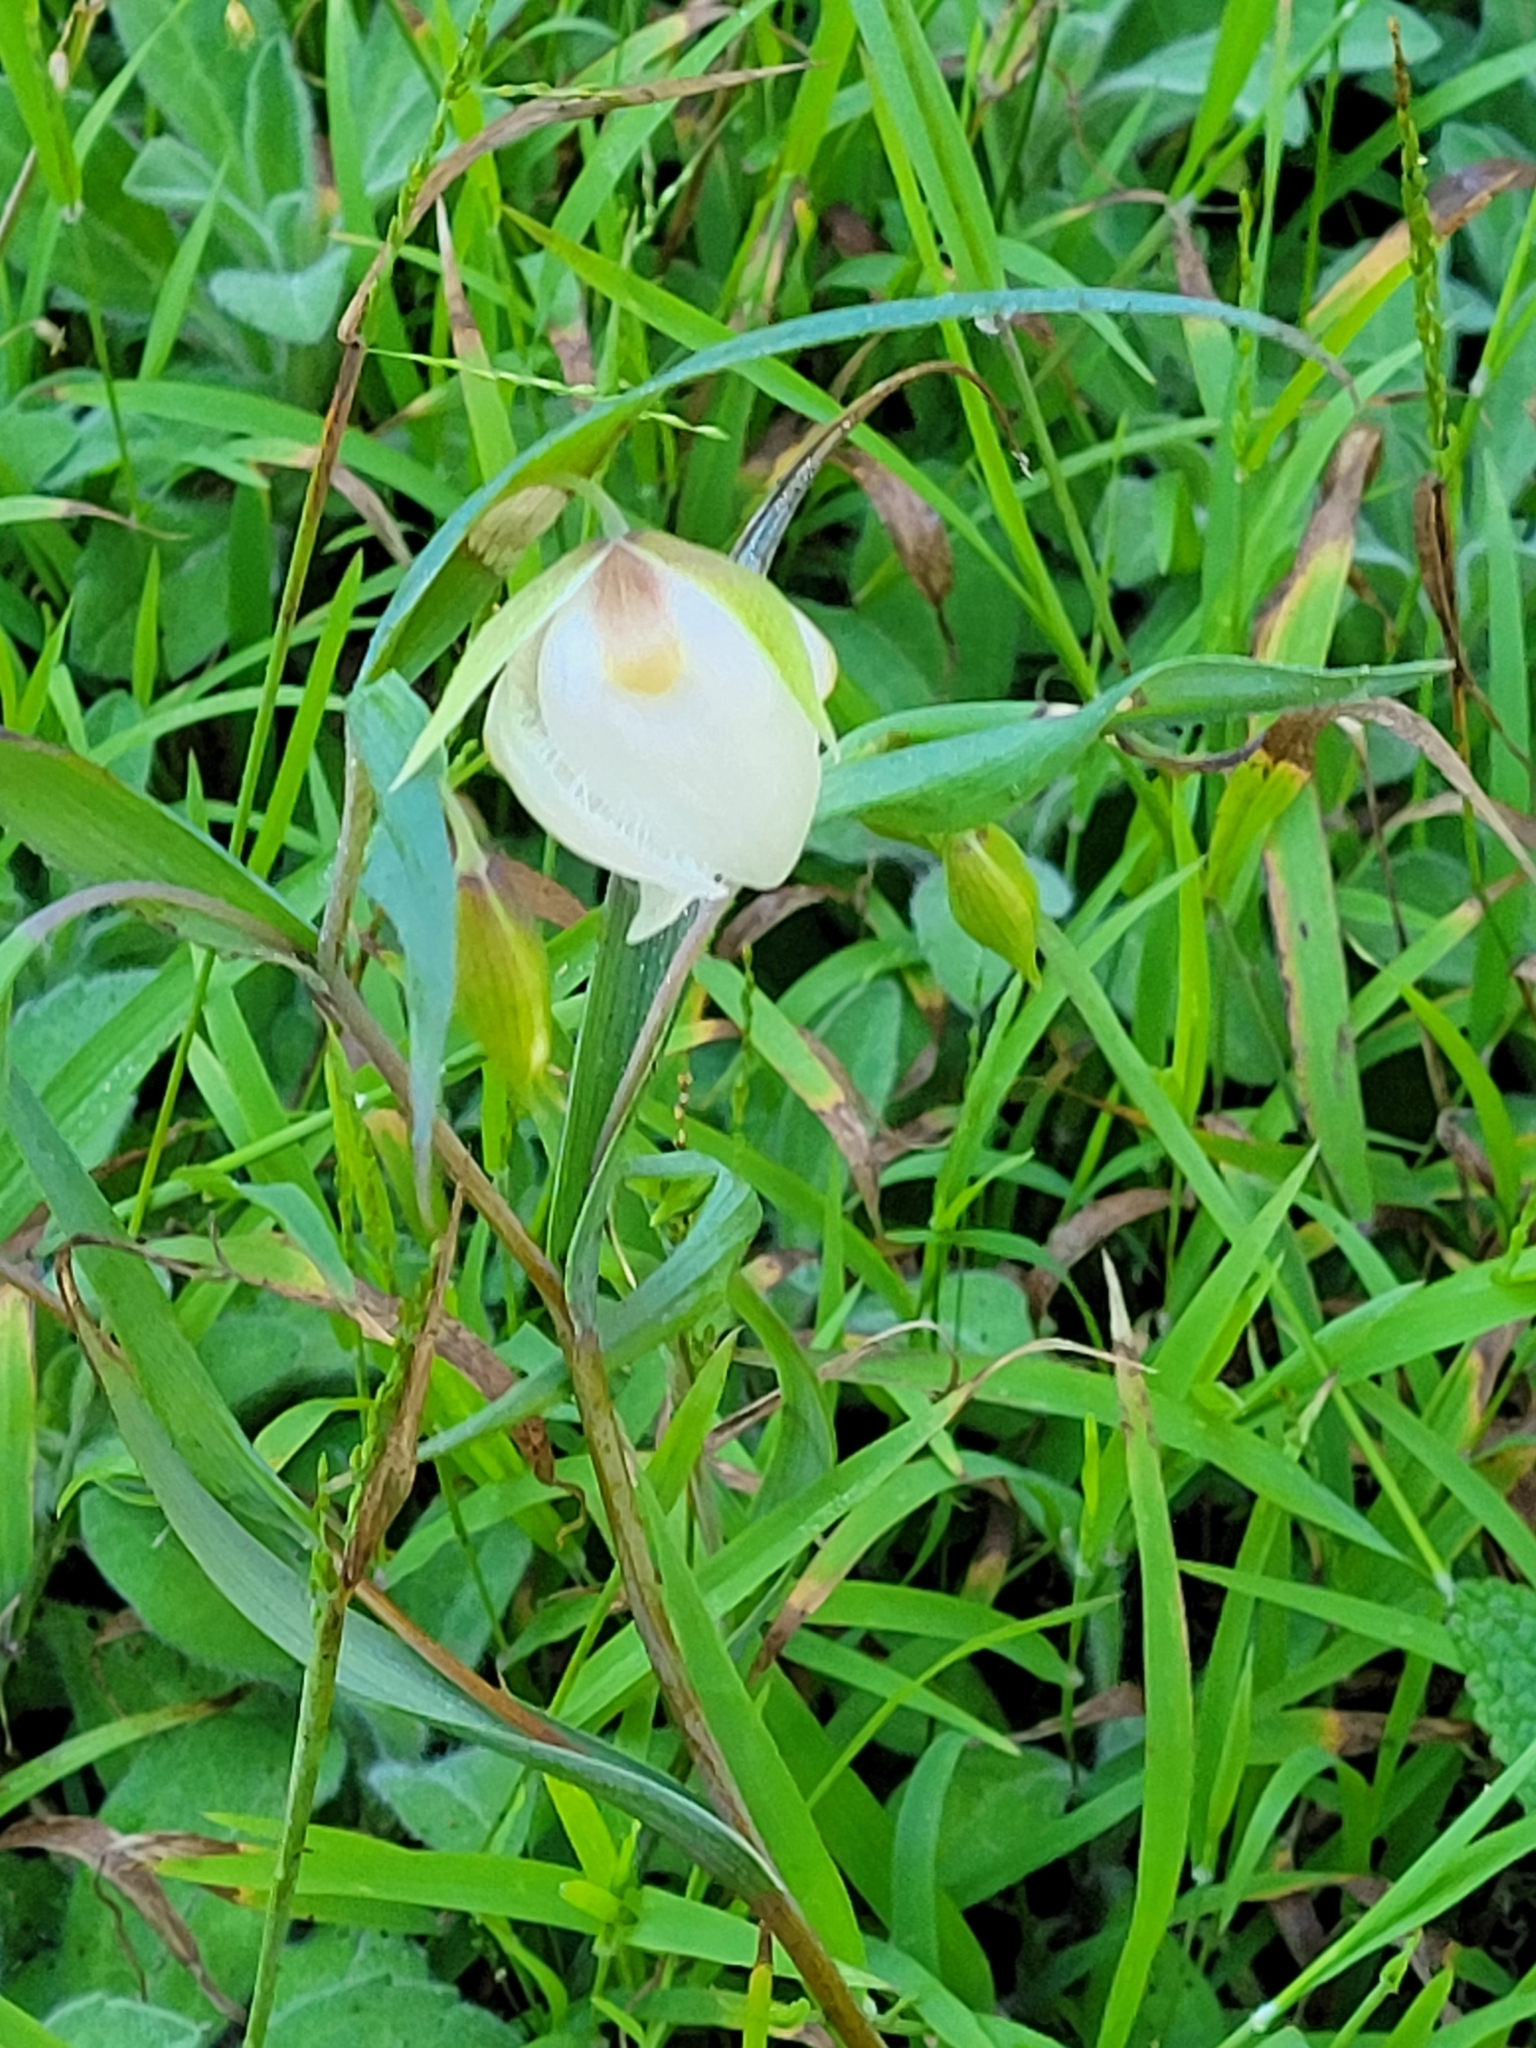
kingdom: Plantae
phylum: Tracheophyta
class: Liliopsida
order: Liliales
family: Liliaceae
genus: Calochortus
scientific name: Calochortus albus
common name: Fairy-lantern
